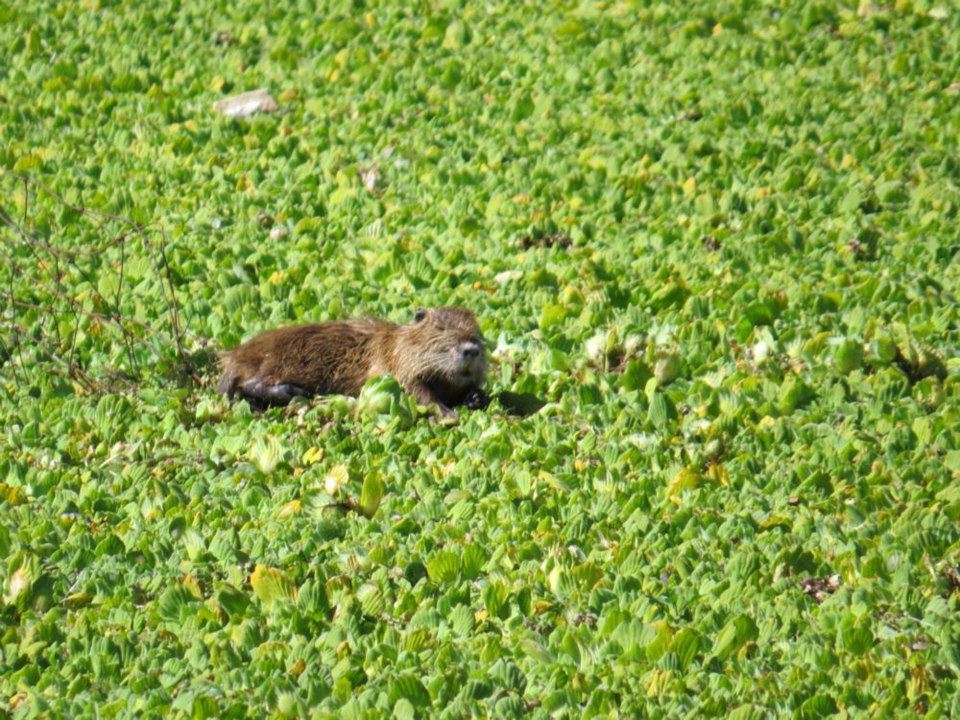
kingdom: Animalia
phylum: Chordata
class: Mammalia
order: Rodentia
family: Myocastoridae
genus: Myocastor
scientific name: Myocastor coypus
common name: Coypu
